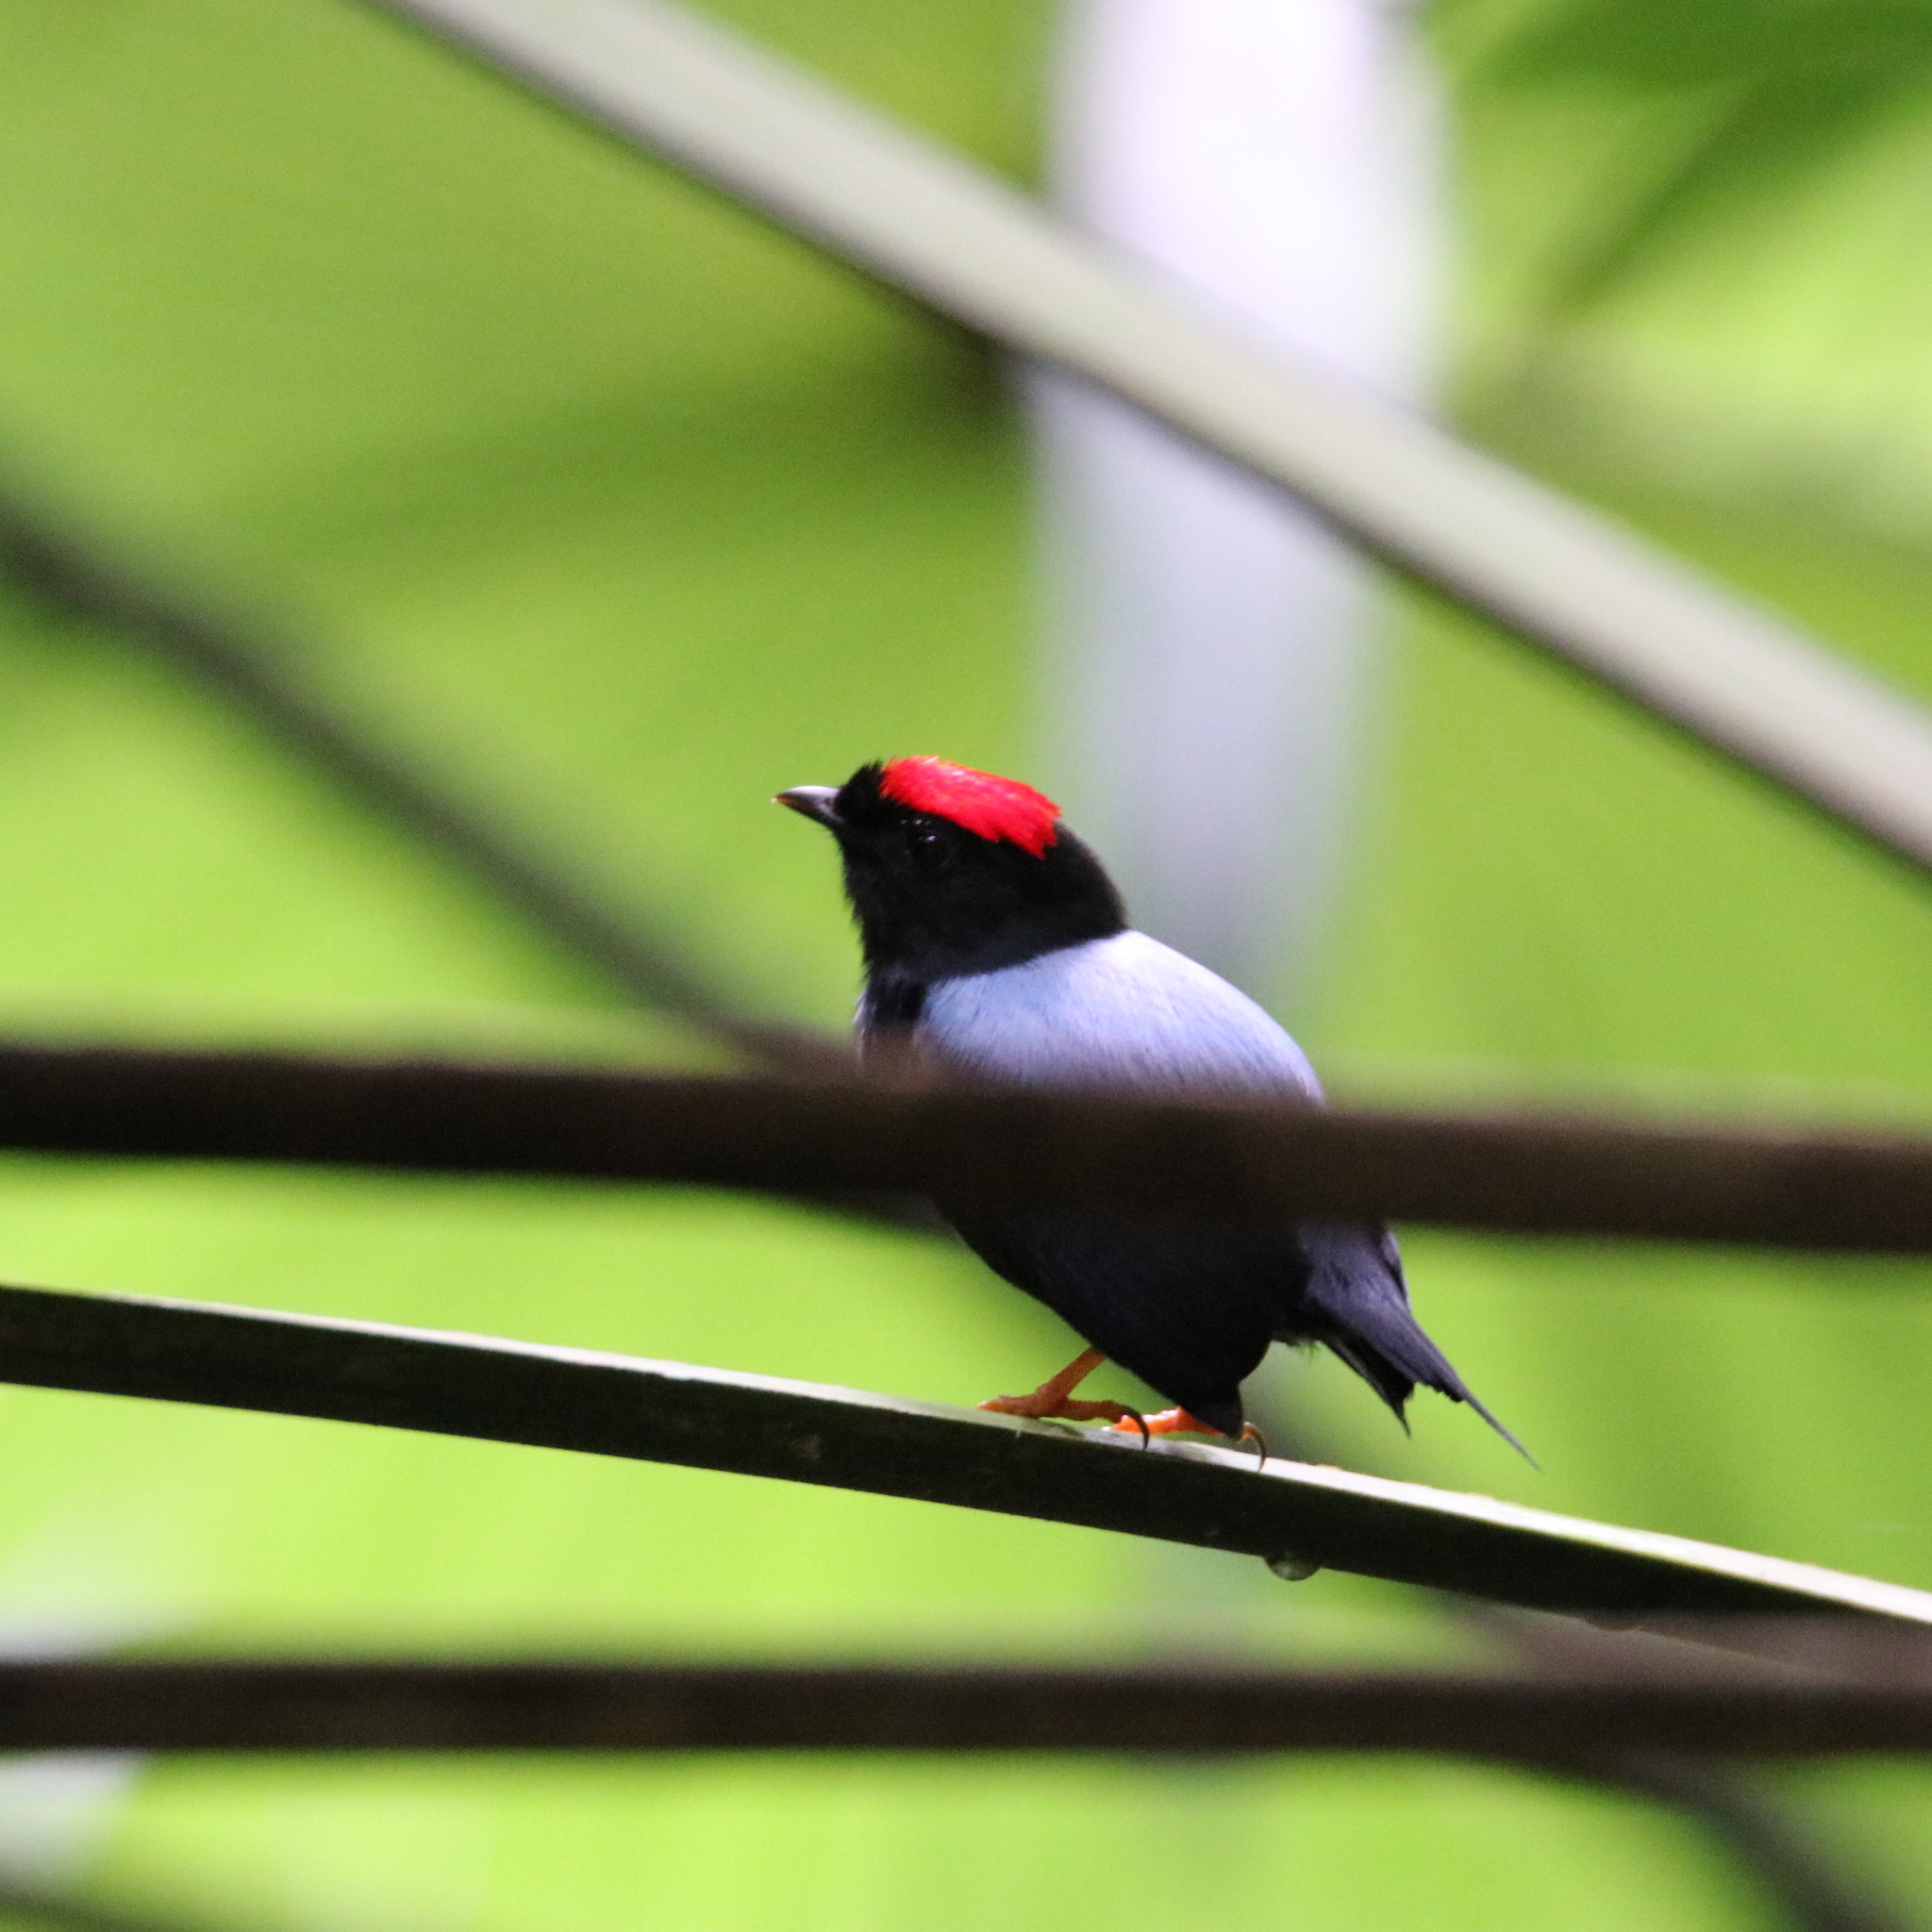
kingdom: Animalia
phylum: Chordata
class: Aves
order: Passeriformes
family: Pipridae
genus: Chiroxiphia
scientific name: Chiroxiphia lanceolata
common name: Lance-tailed manakin
